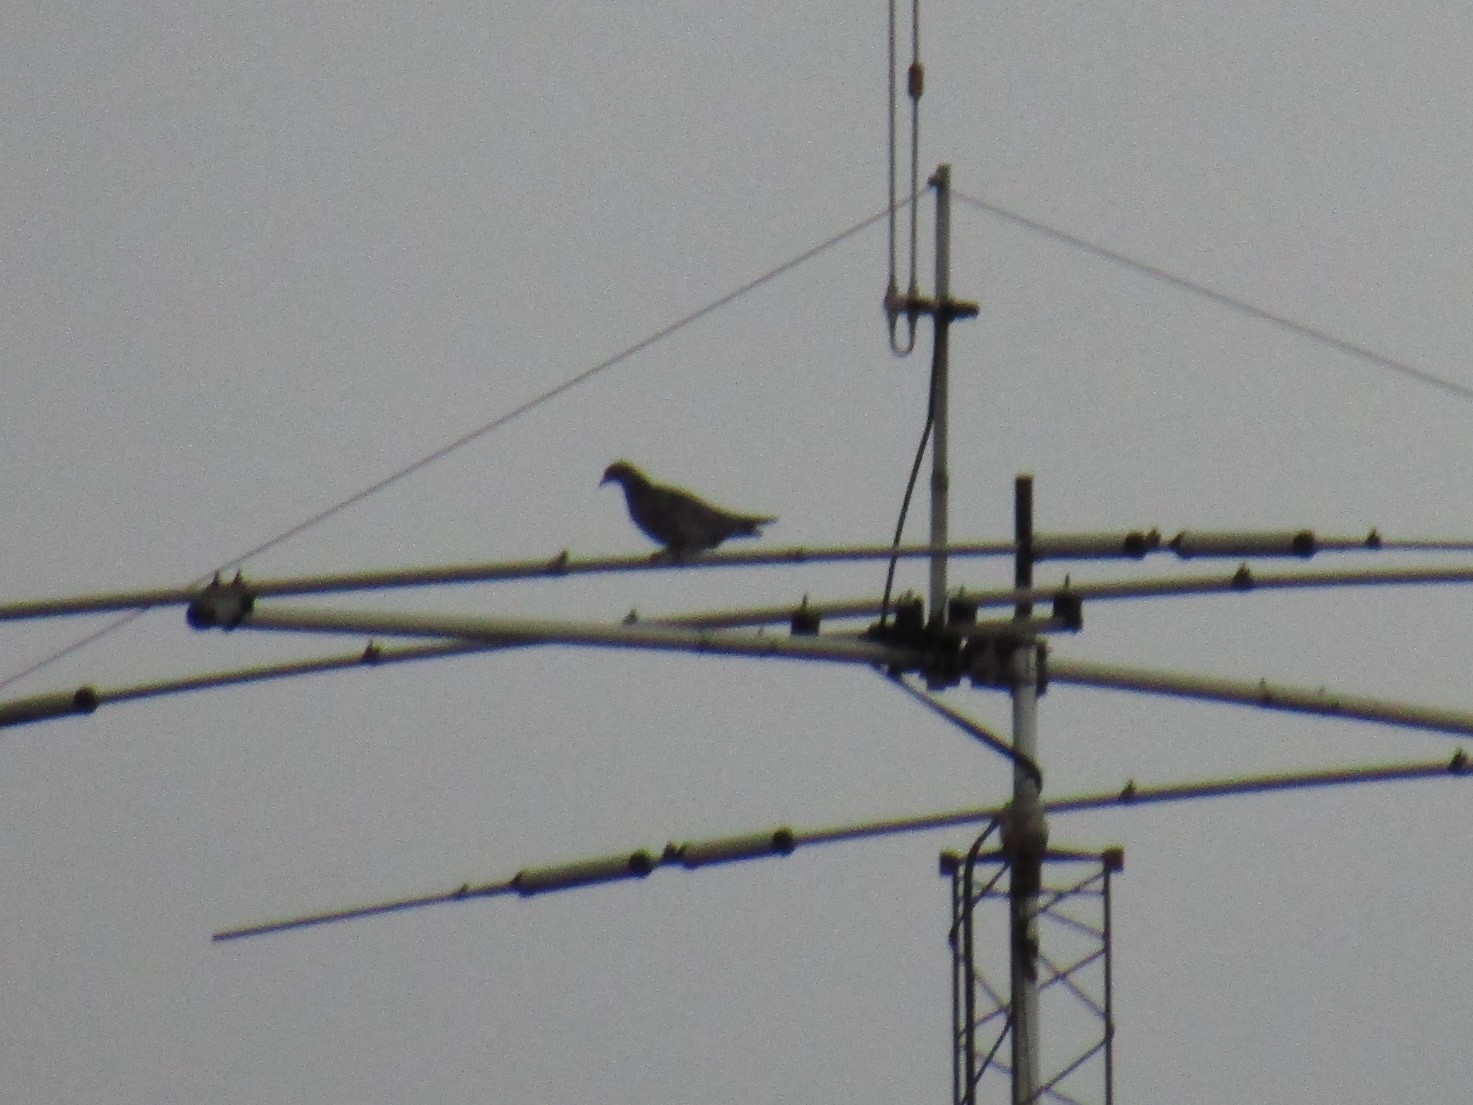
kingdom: Animalia
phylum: Chordata
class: Aves
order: Columbiformes
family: Columbidae
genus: Columba
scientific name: Columba livia
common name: Rock pigeon
